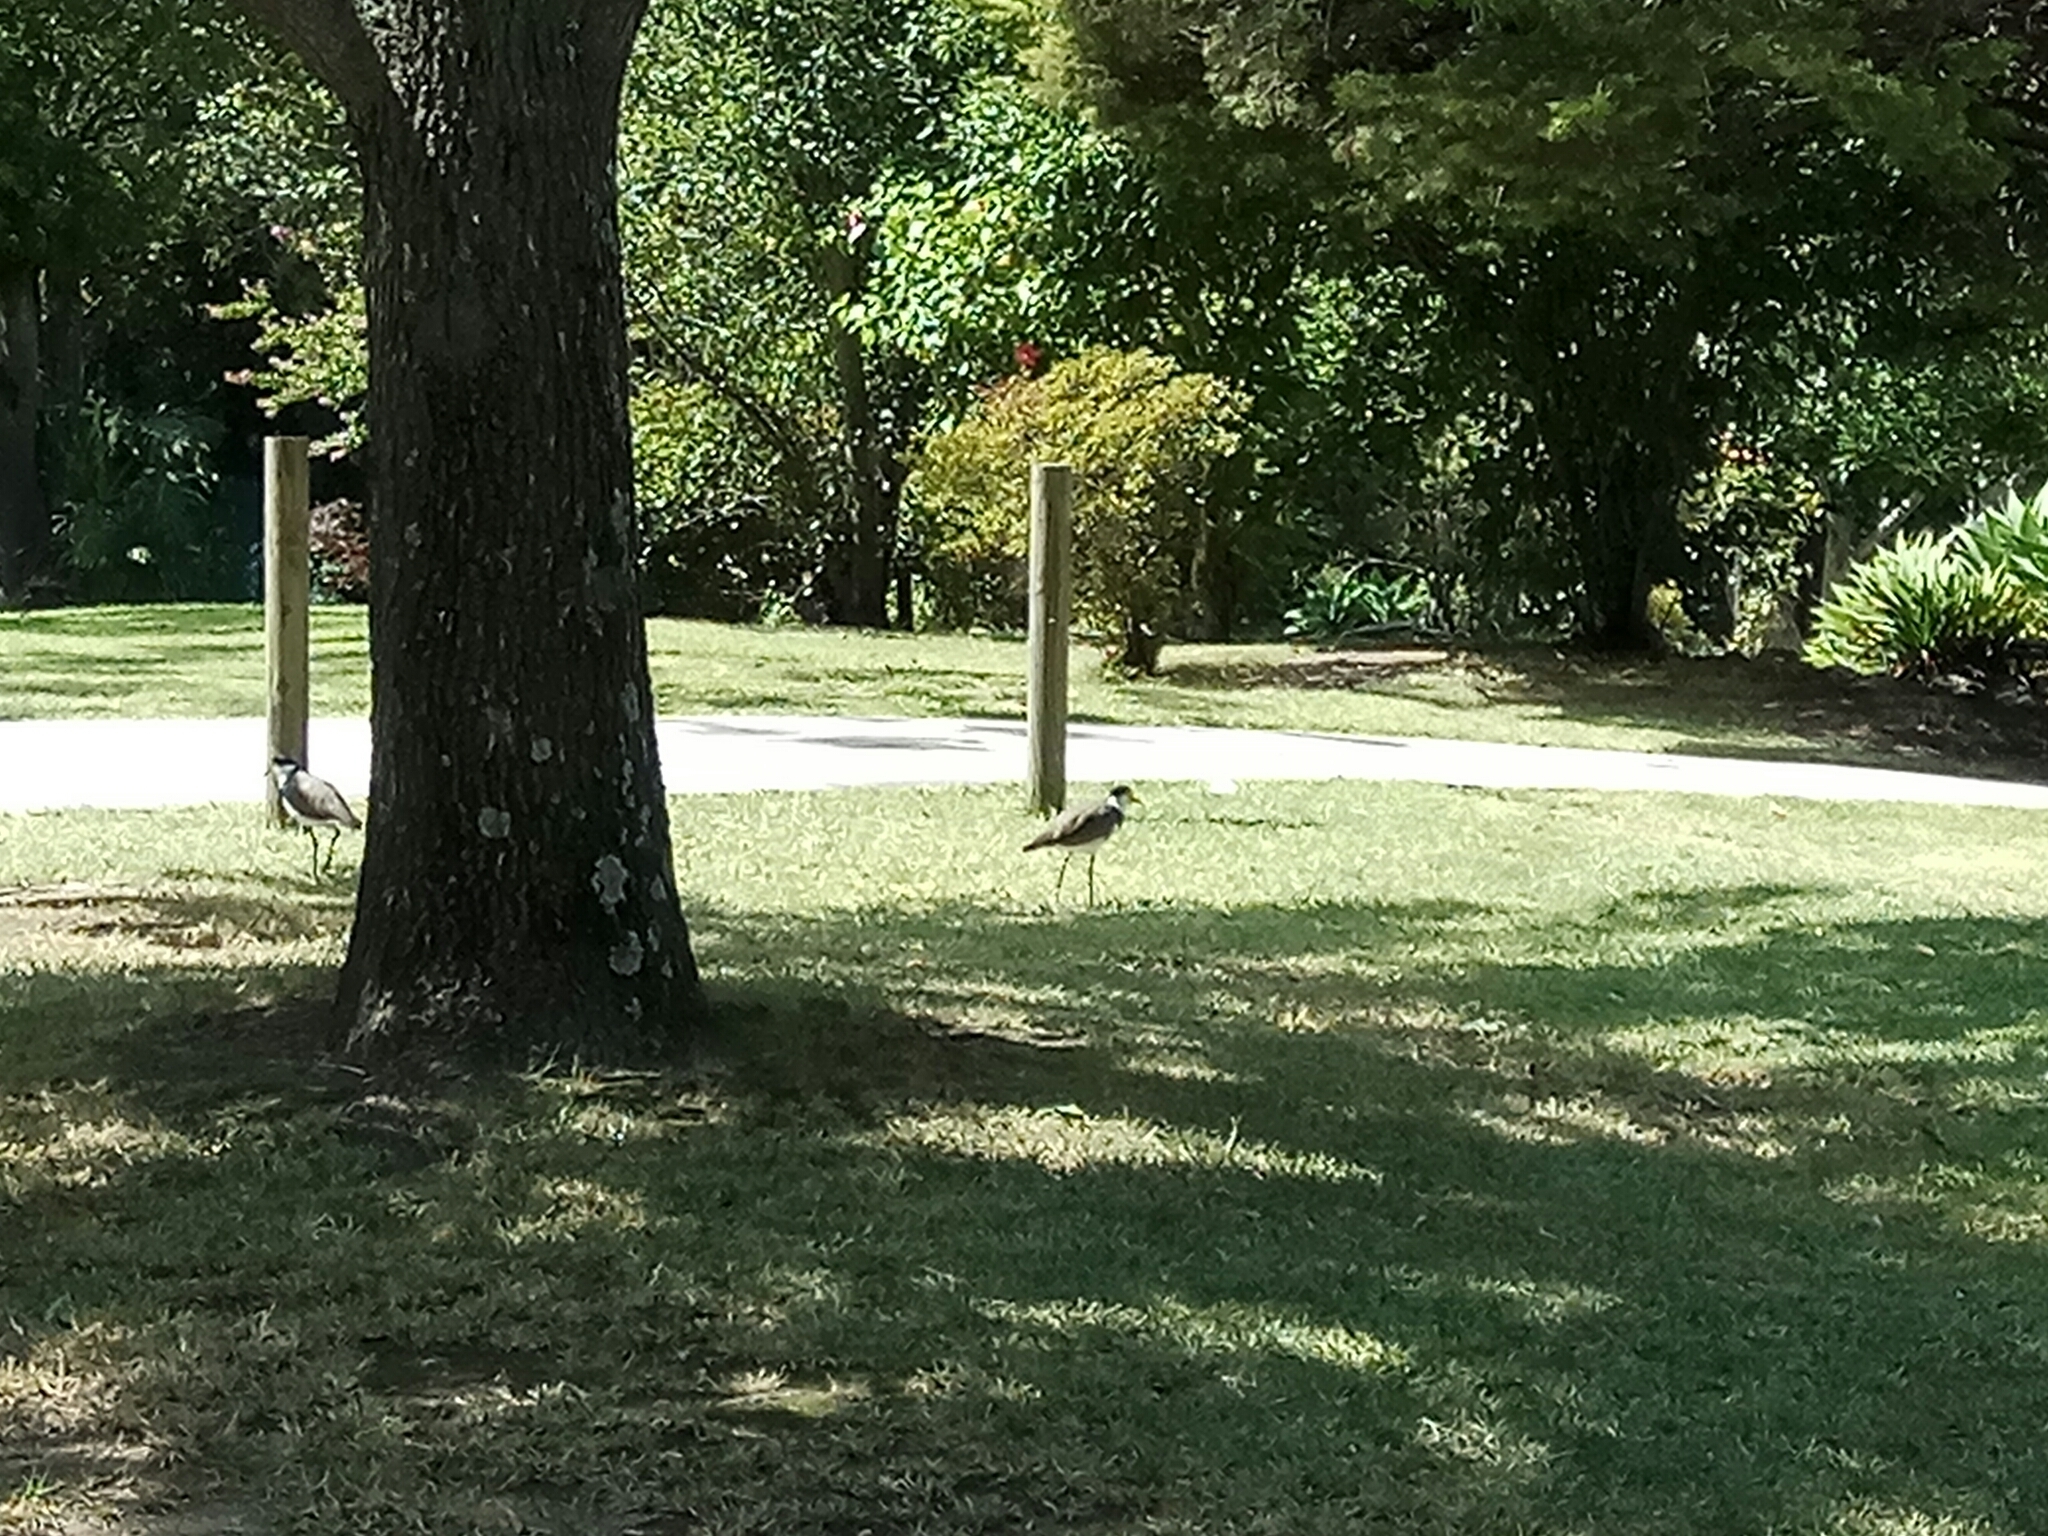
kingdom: Animalia
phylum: Chordata
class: Aves
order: Charadriiformes
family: Charadriidae
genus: Vanellus
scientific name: Vanellus miles
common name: Masked lapwing
